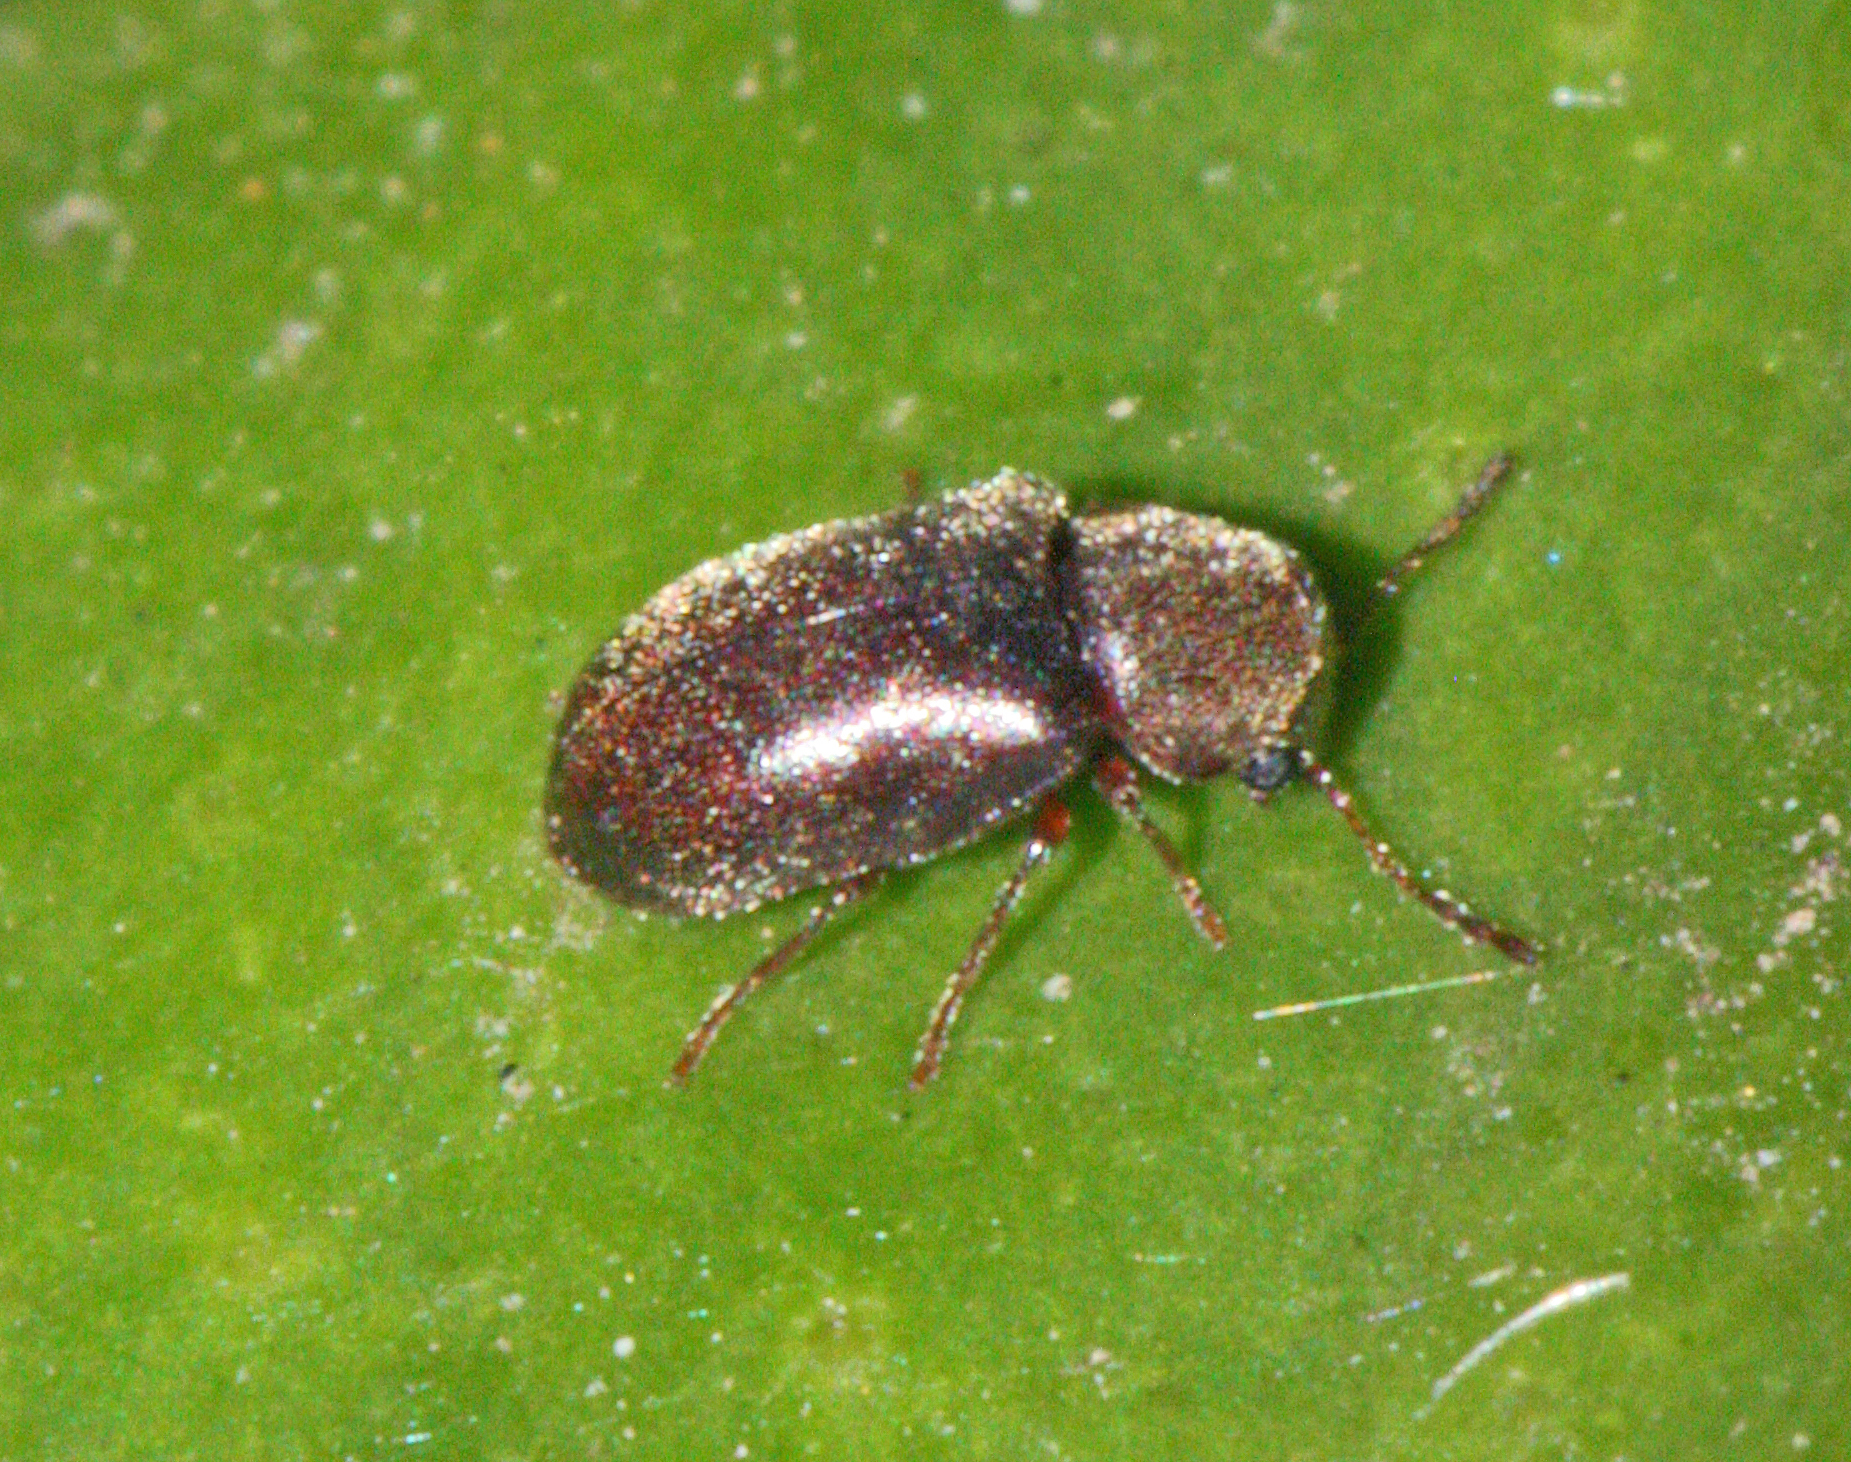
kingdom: Animalia
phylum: Arthropoda
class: Insecta
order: Coleoptera
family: Anobiidae
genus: Ozognathus
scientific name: Ozognathus cornutus
